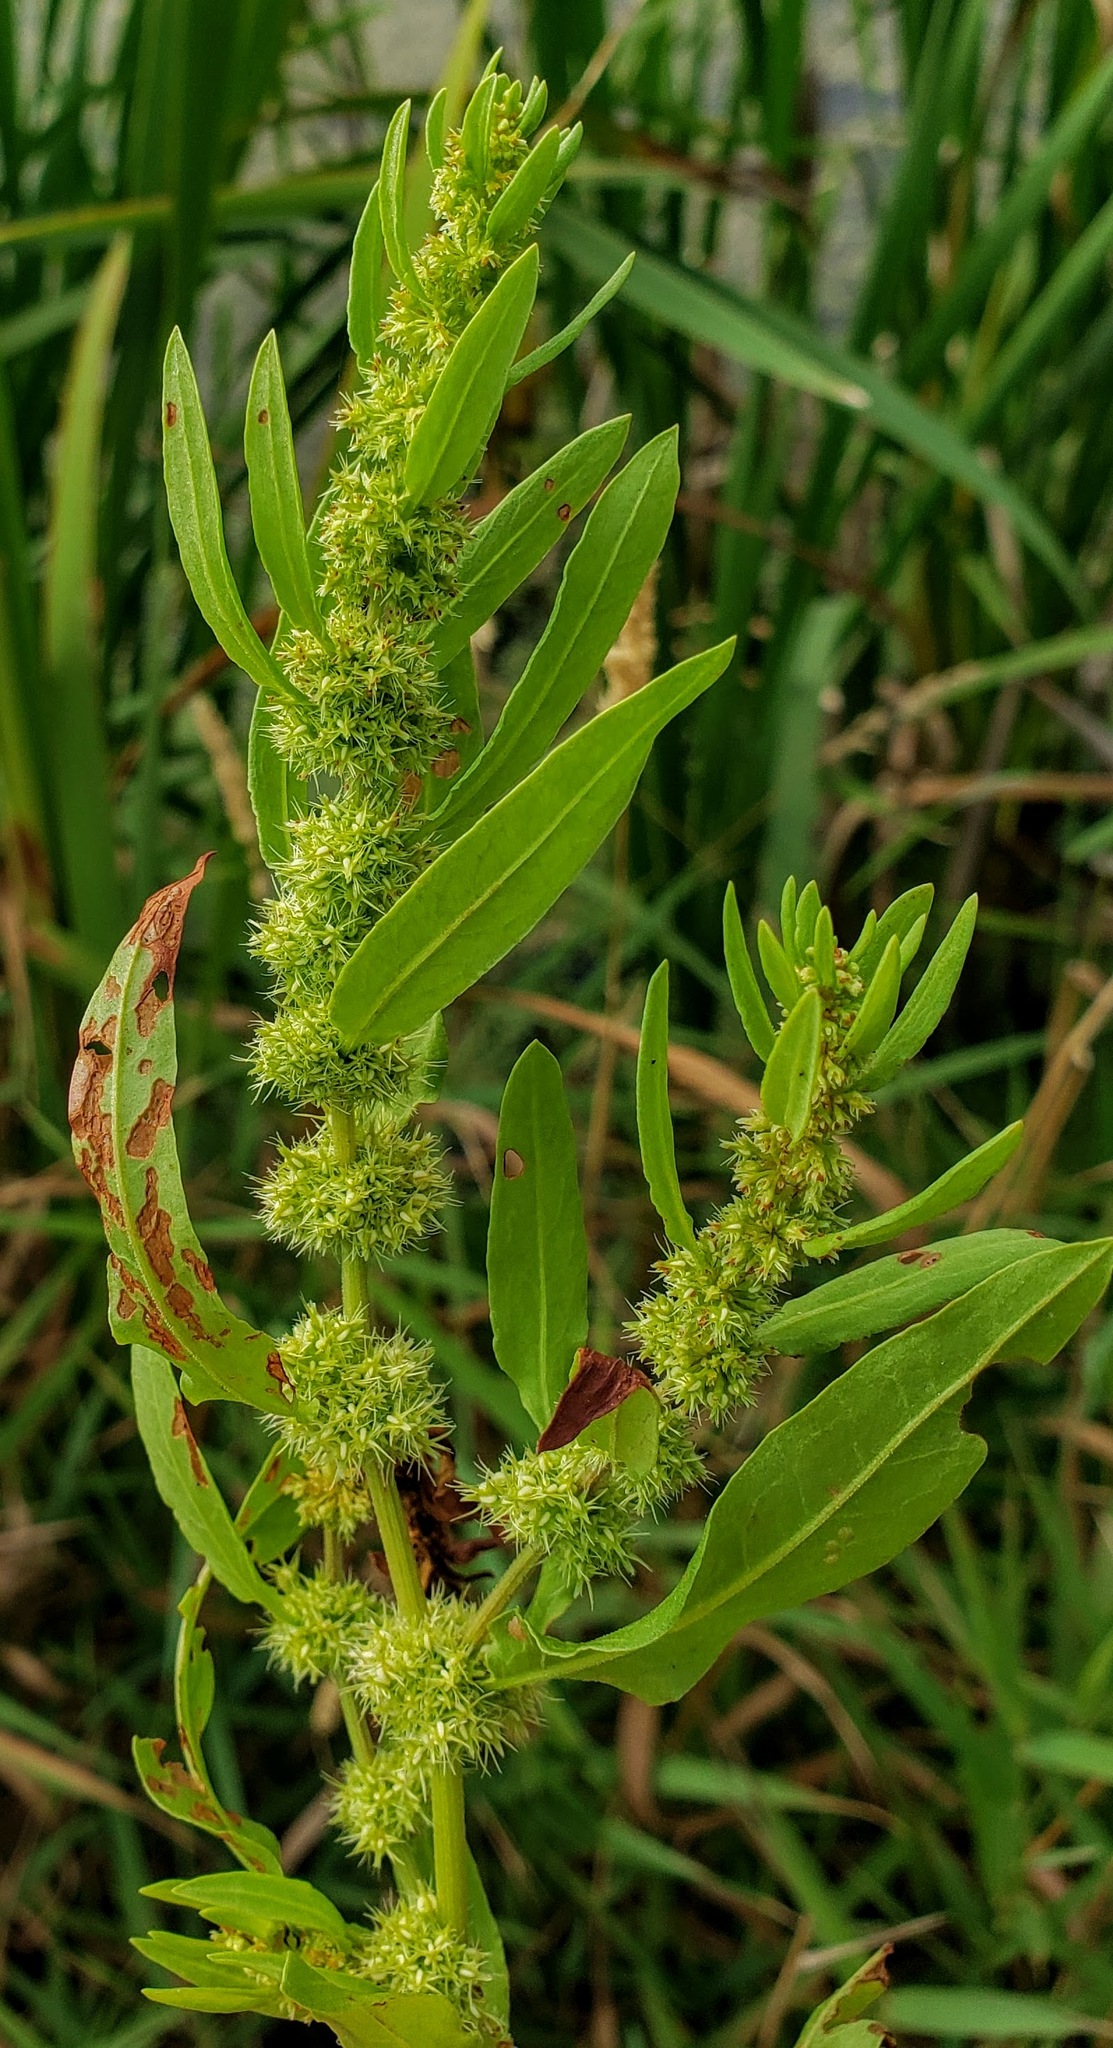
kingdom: Plantae
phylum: Tracheophyta
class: Magnoliopsida
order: Caryophyllales
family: Polygonaceae
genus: Rumex
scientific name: Rumex fueginus
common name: American golden dock
